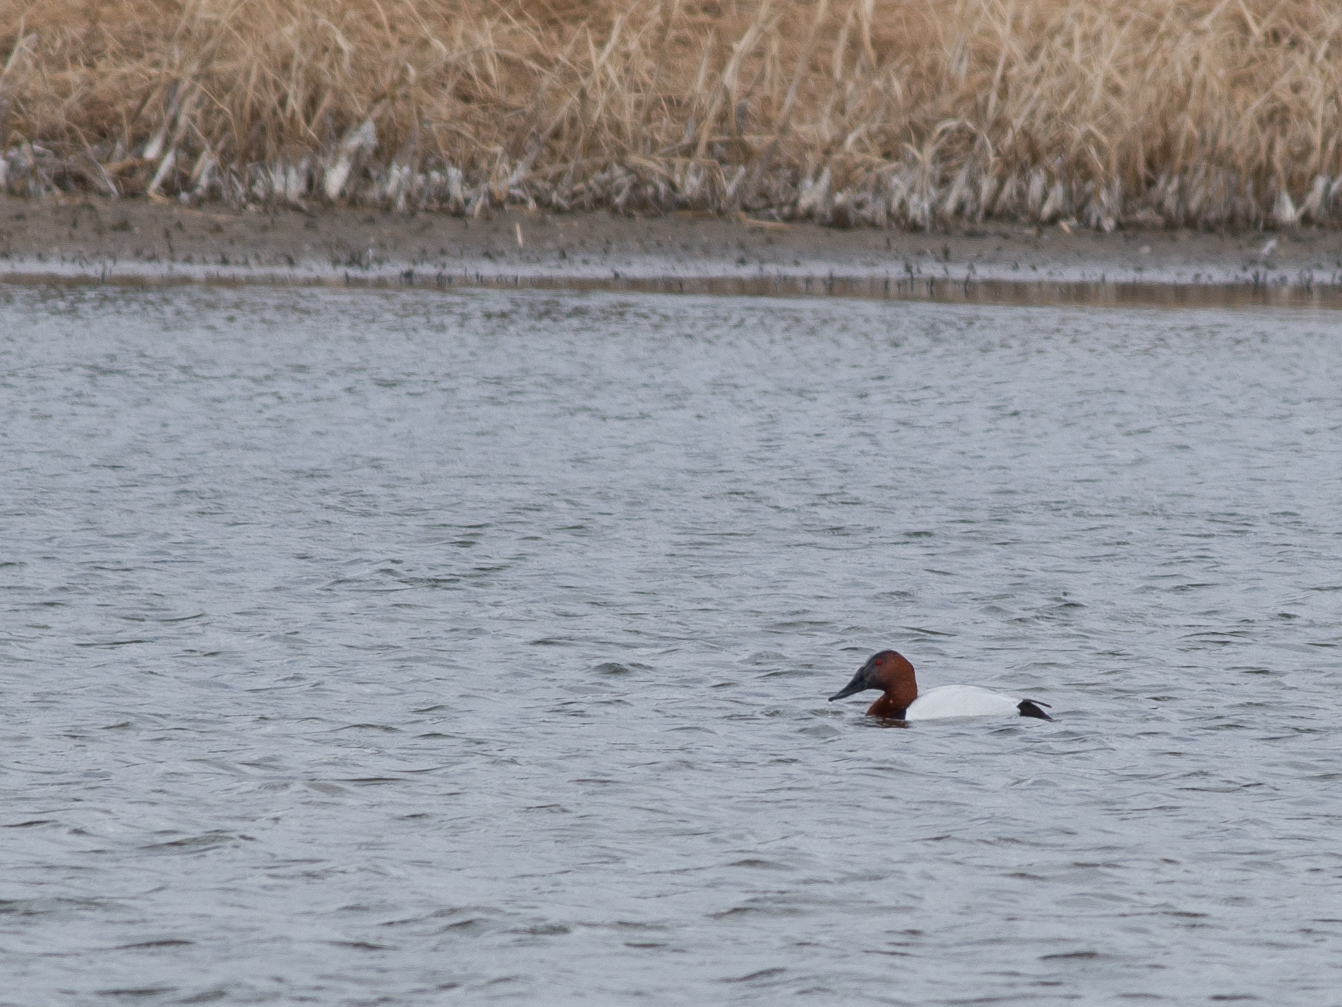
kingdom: Animalia
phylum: Chordata
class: Aves
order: Anseriformes
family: Anatidae
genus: Aythya
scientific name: Aythya valisineria
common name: Canvasback
